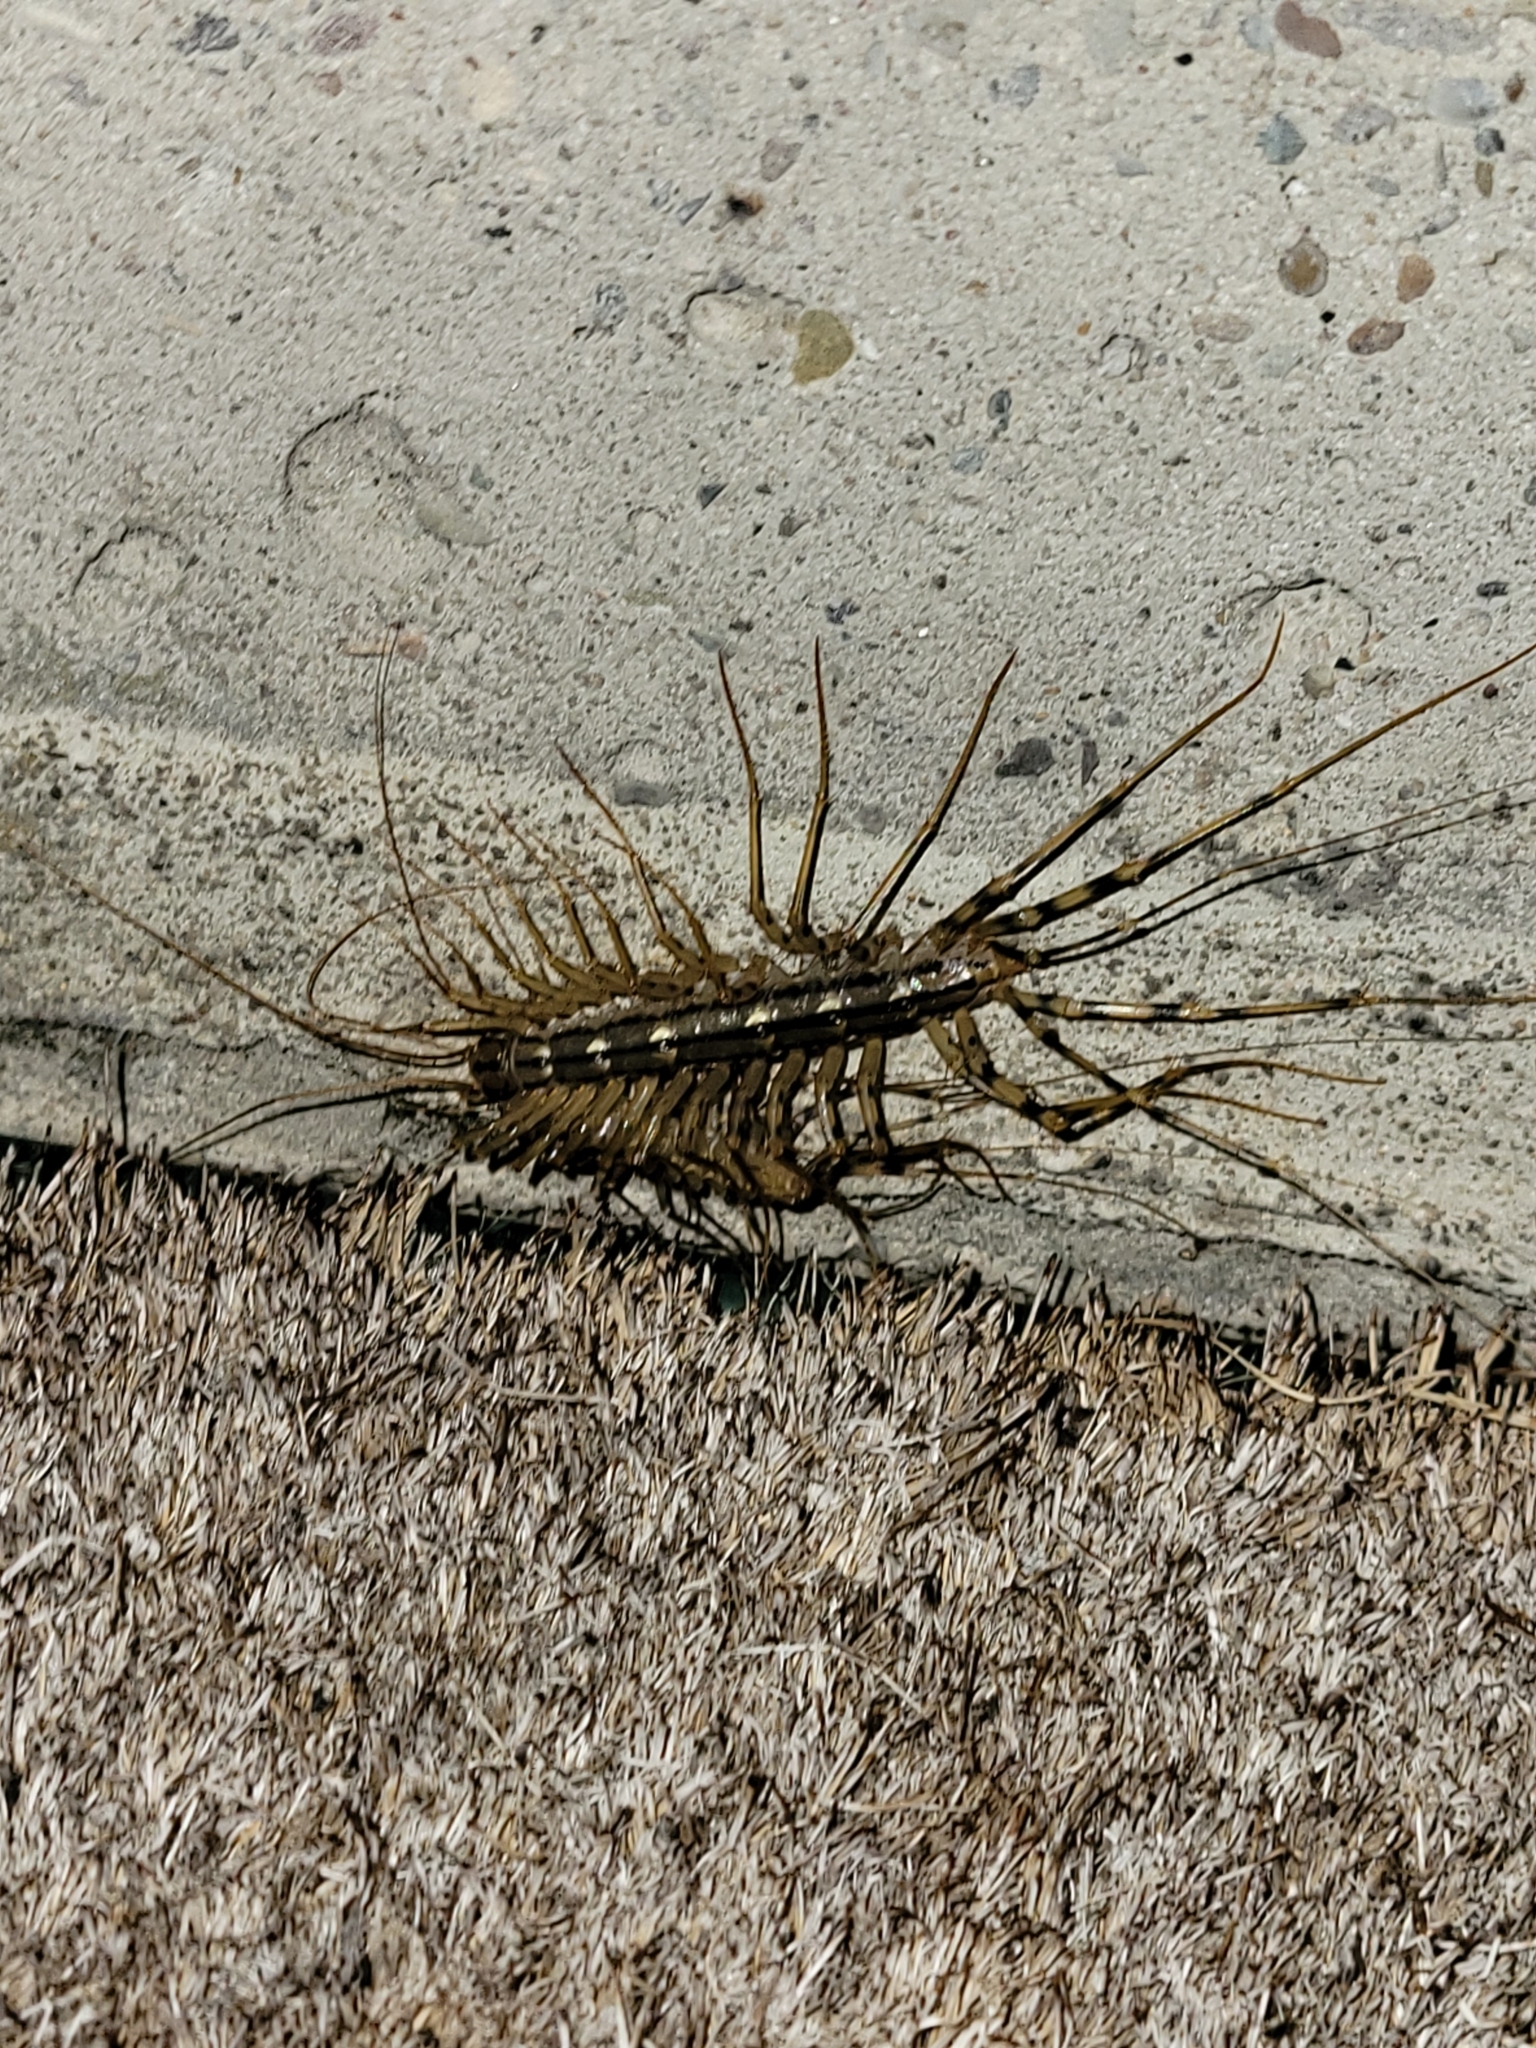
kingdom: Animalia
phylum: Arthropoda
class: Chilopoda
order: Scutigeromorpha
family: Scutigeridae
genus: Scutigera
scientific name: Scutigera coleoptrata
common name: House centipede
